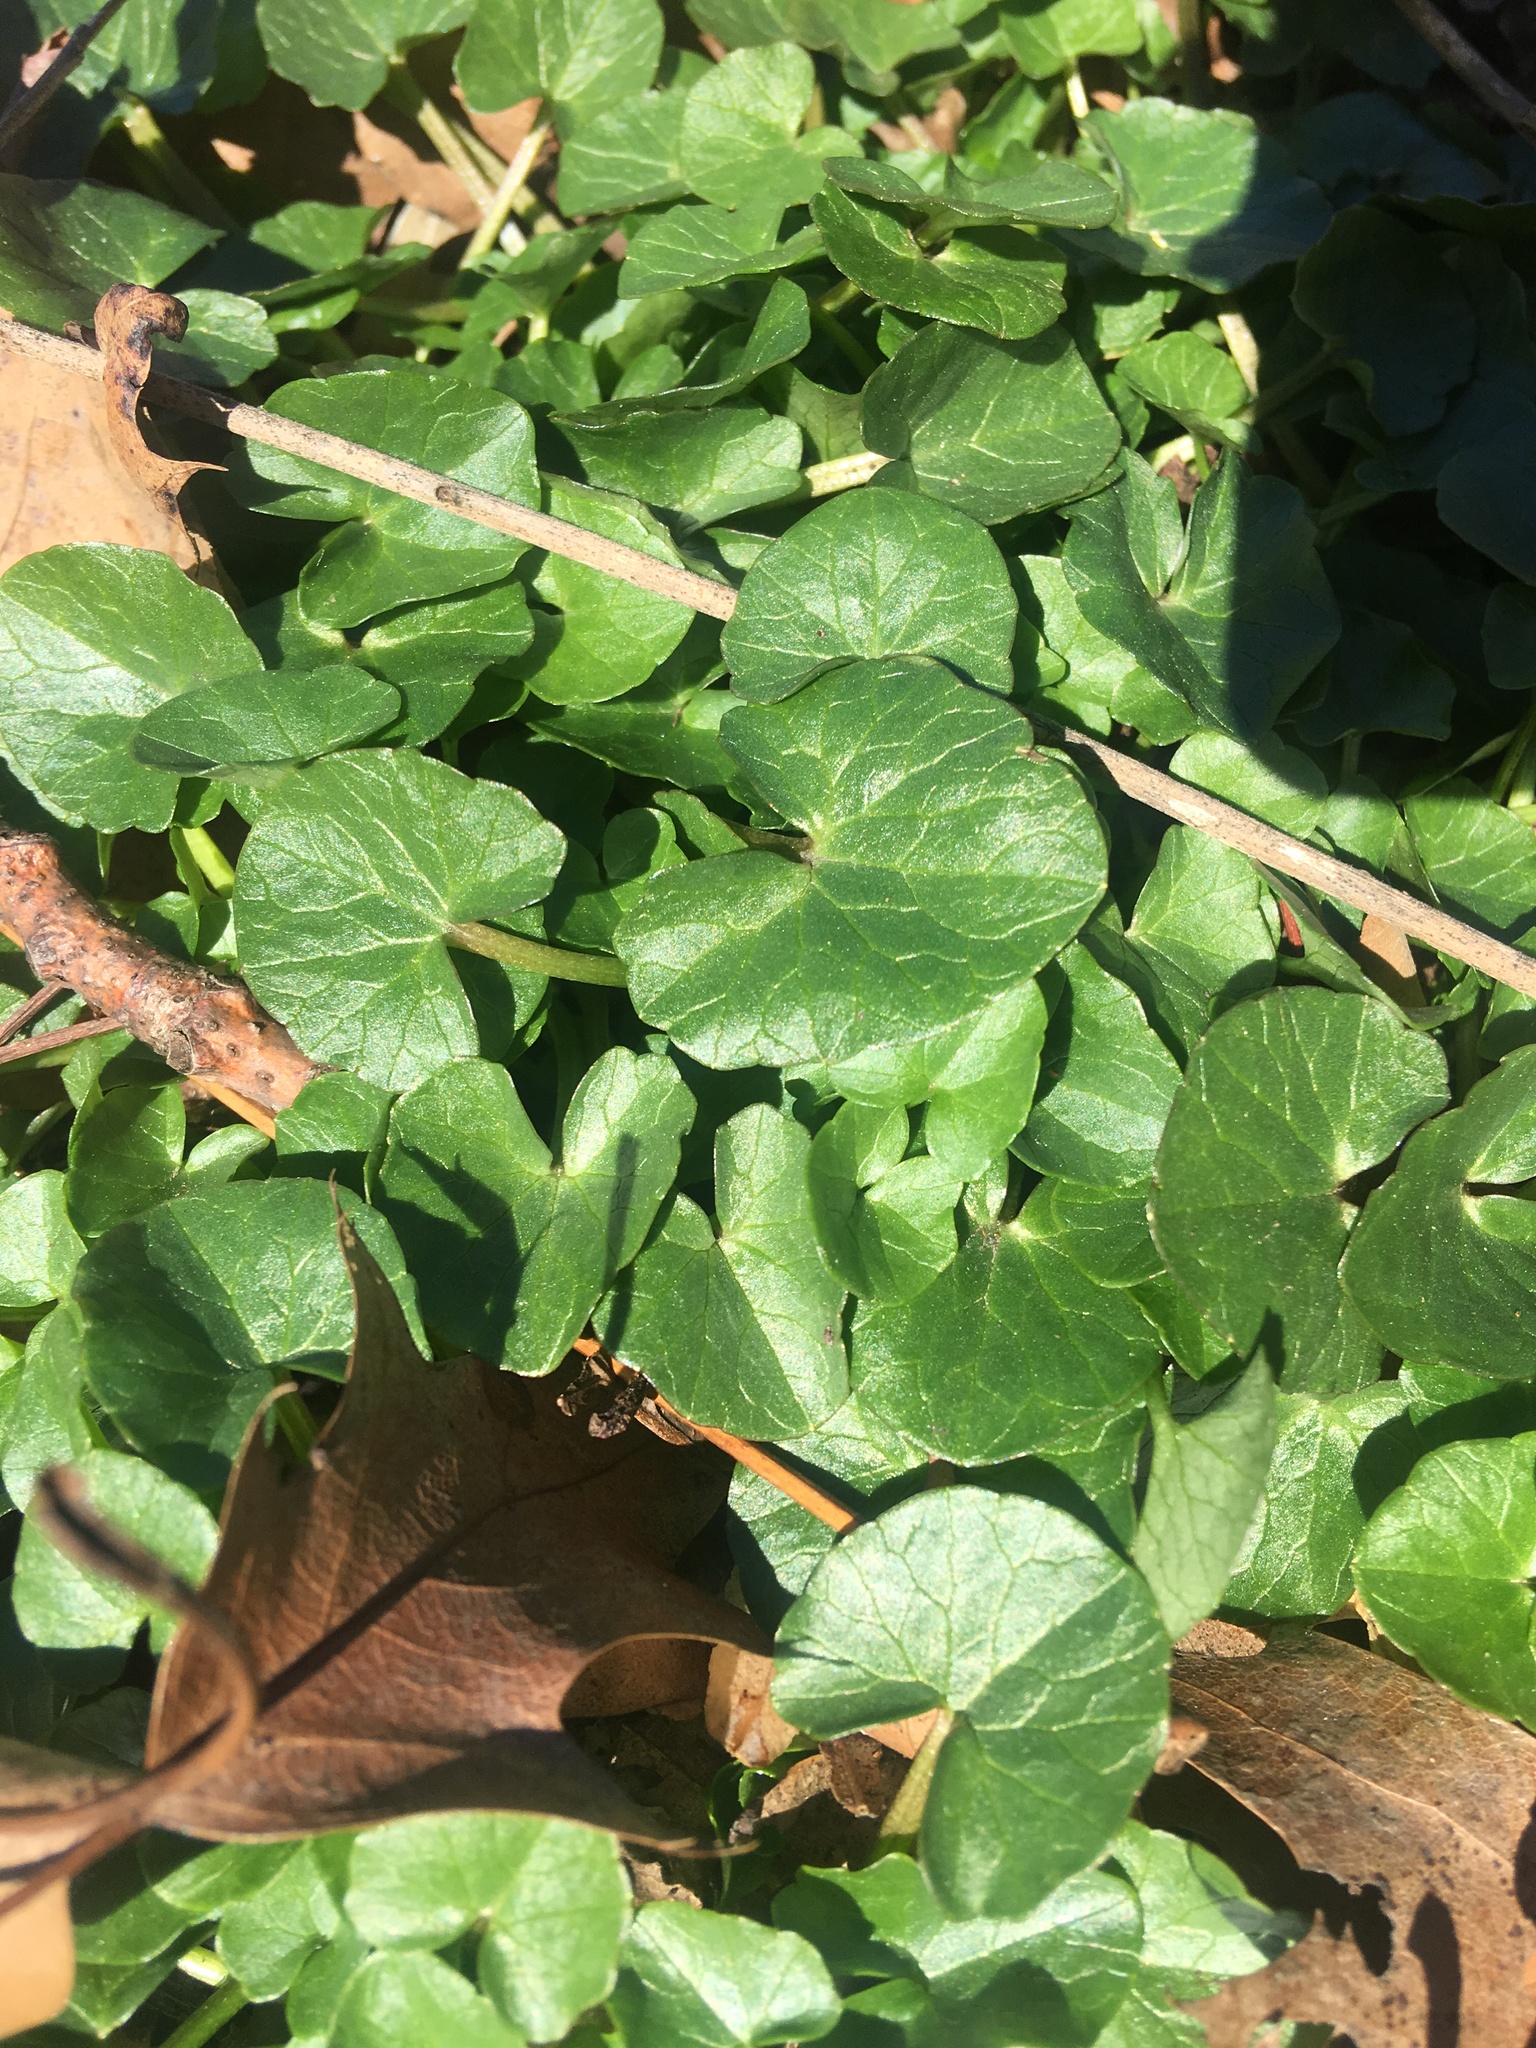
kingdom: Plantae
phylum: Tracheophyta
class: Magnoliopsida
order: Ranunculales
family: Ranunculaceae
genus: Ficaria
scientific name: Ficaria verna
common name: Lesser celandine
